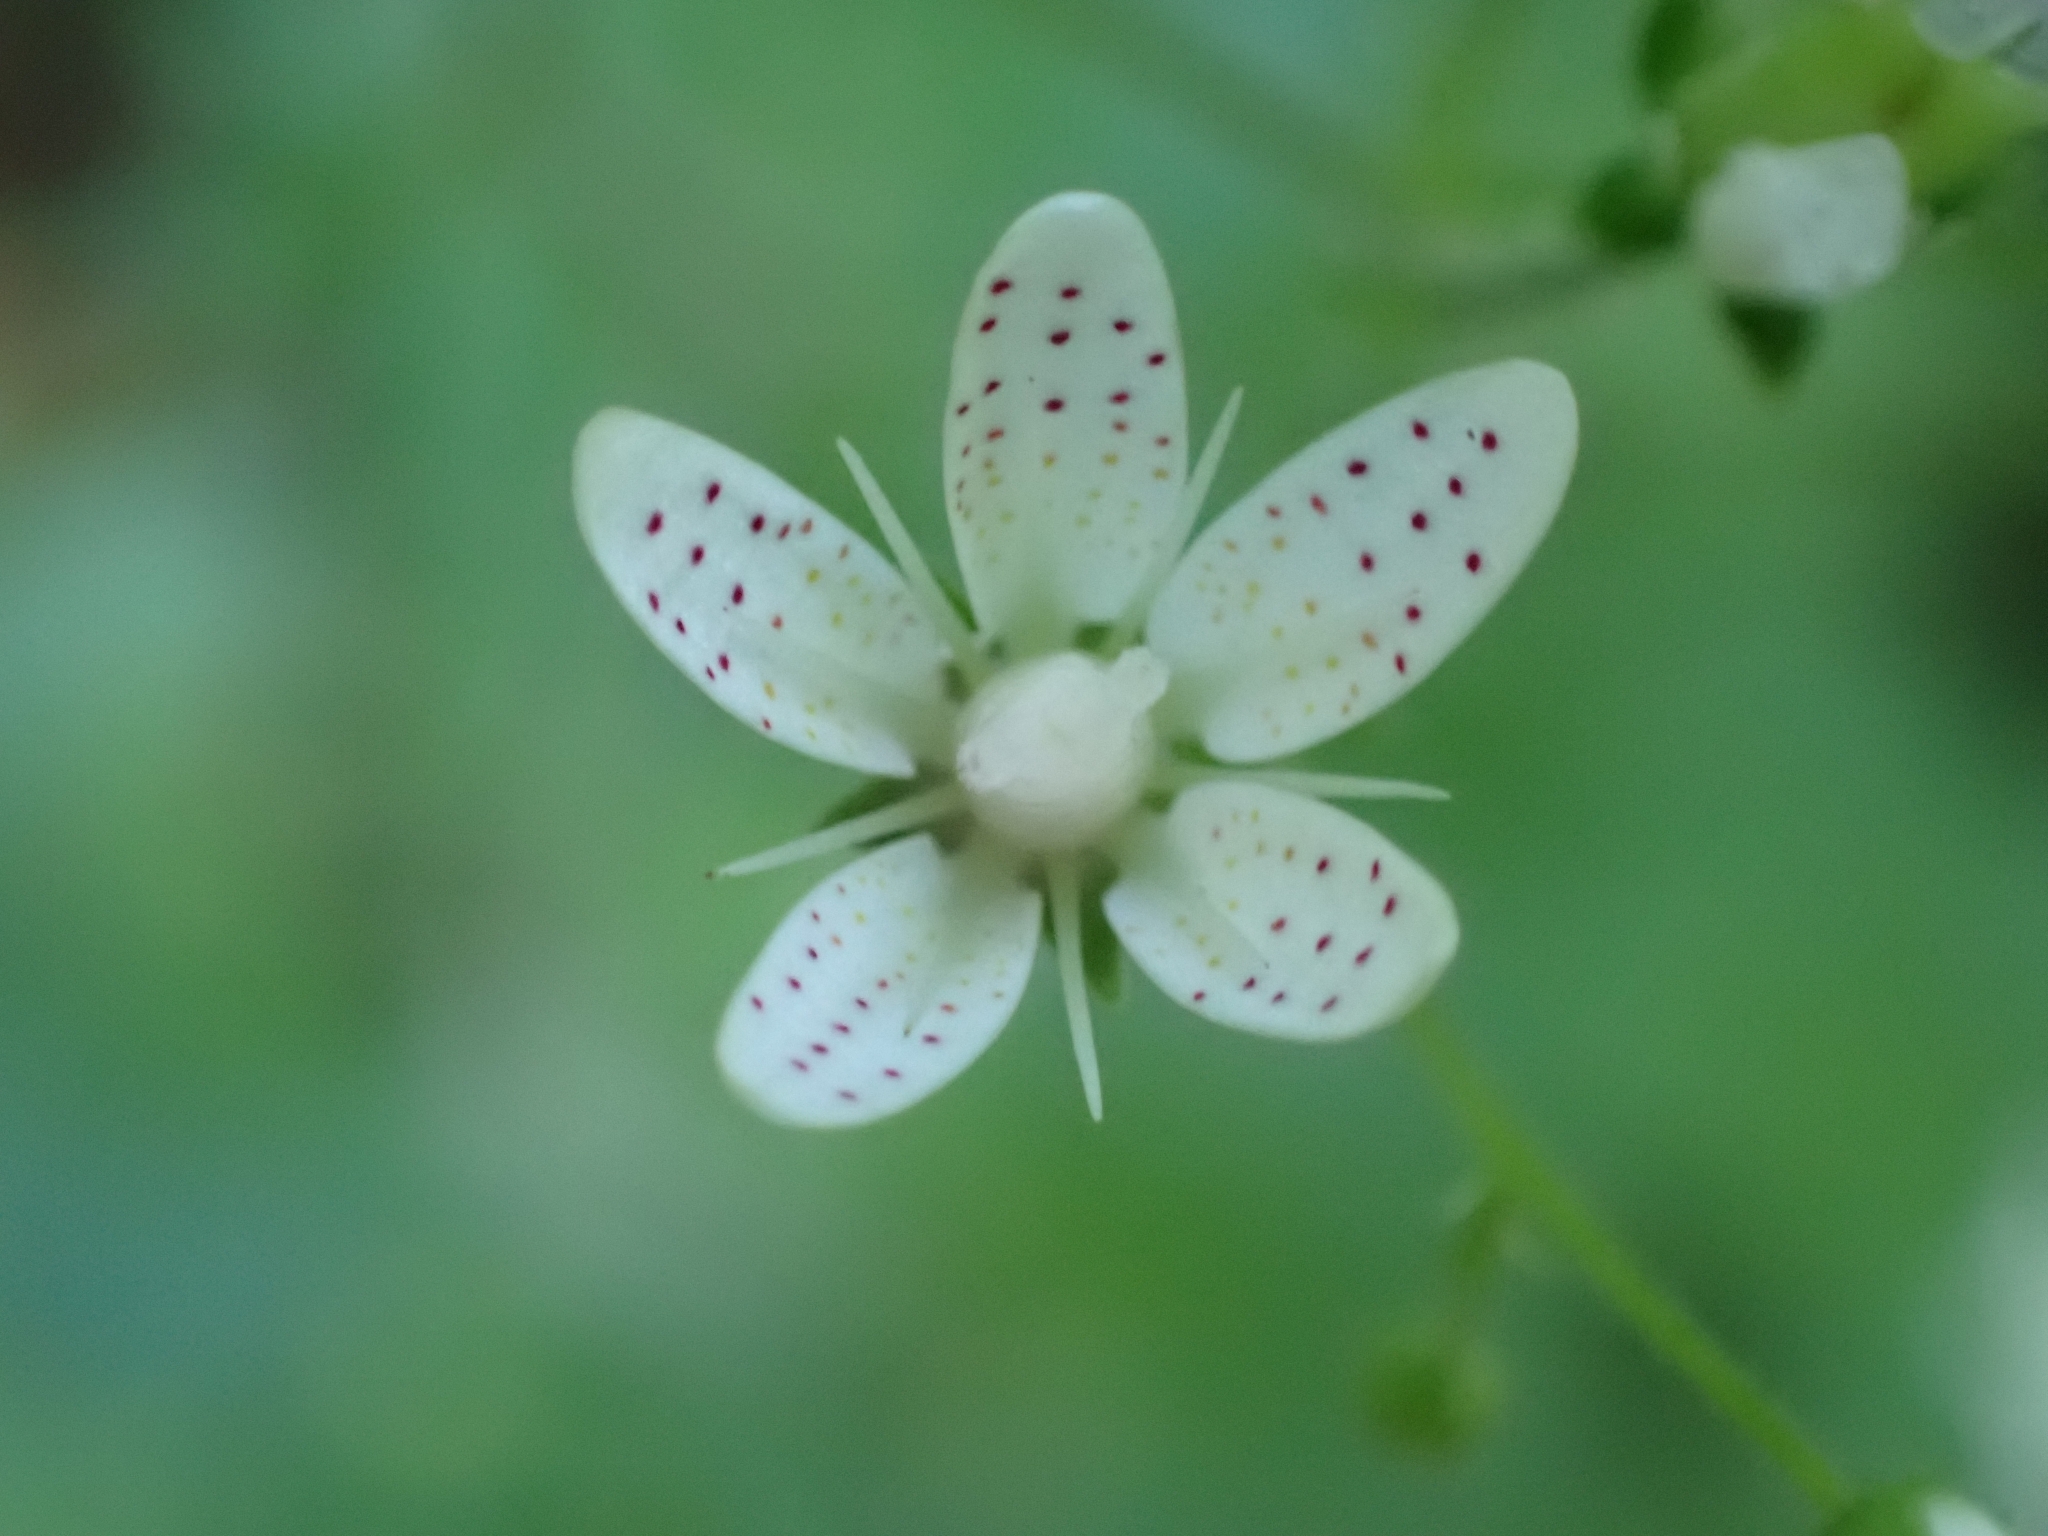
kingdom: Plantae
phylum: Tracheophyta
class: Magnoliopsida
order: Saxifragales
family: Saxifragaceae
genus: Saxifraga
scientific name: Saxifraga rotundifolia
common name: Round-leaved saxifrage
